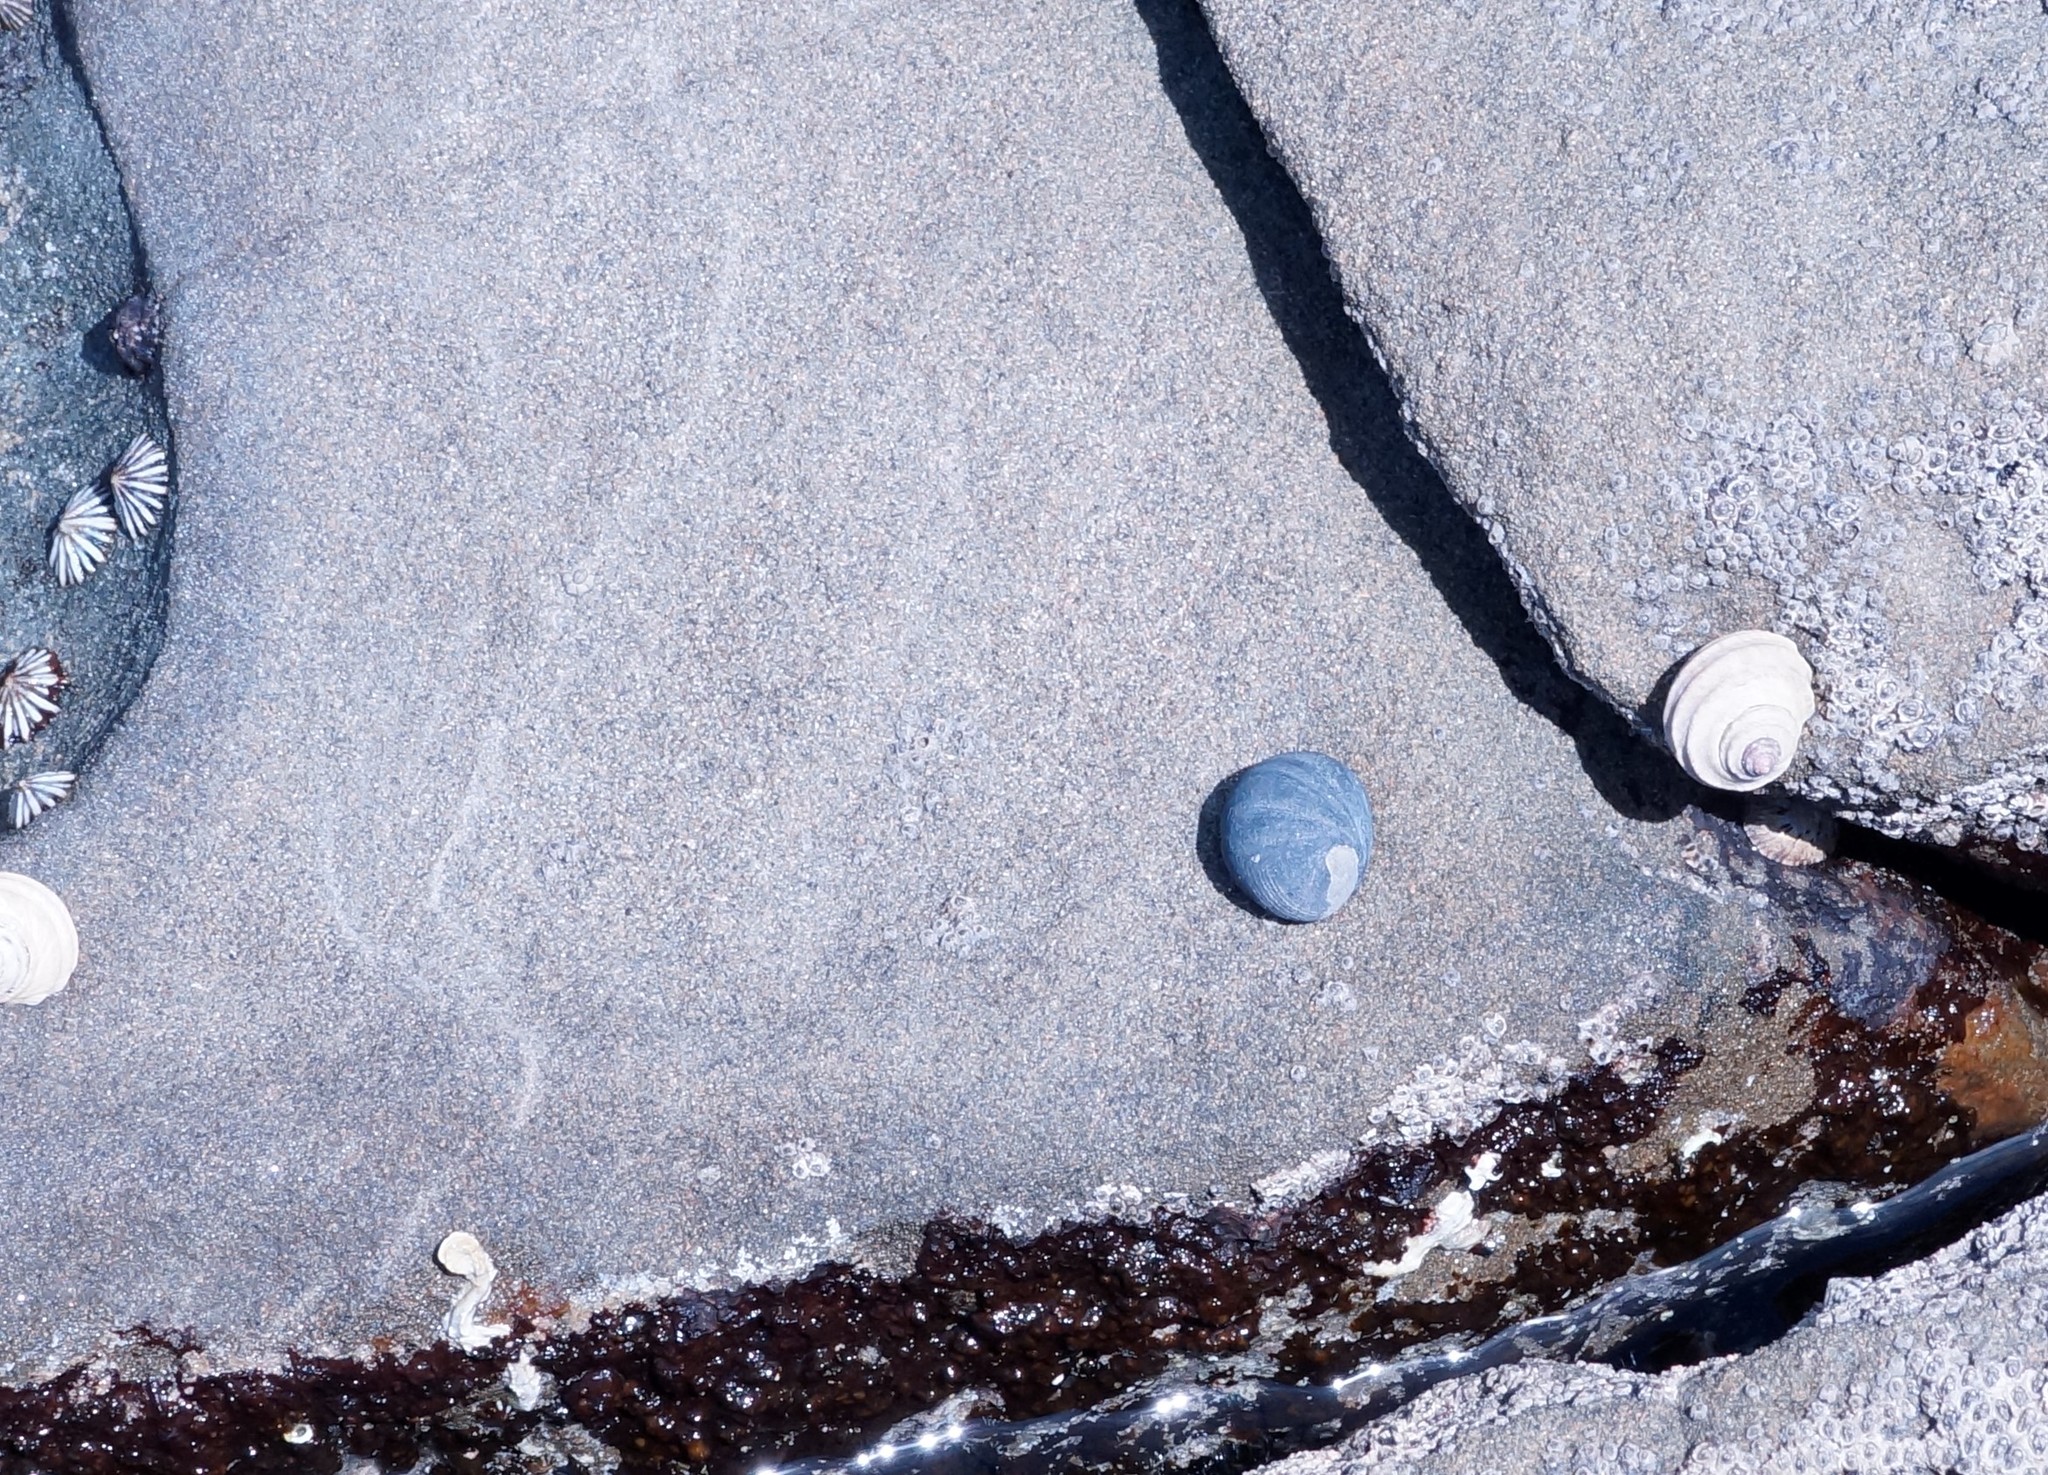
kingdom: Animalia
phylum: Mollusca
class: Gastropoda
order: Cycloneritida
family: Neritidae
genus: Nerita
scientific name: Nerita atramentosa
